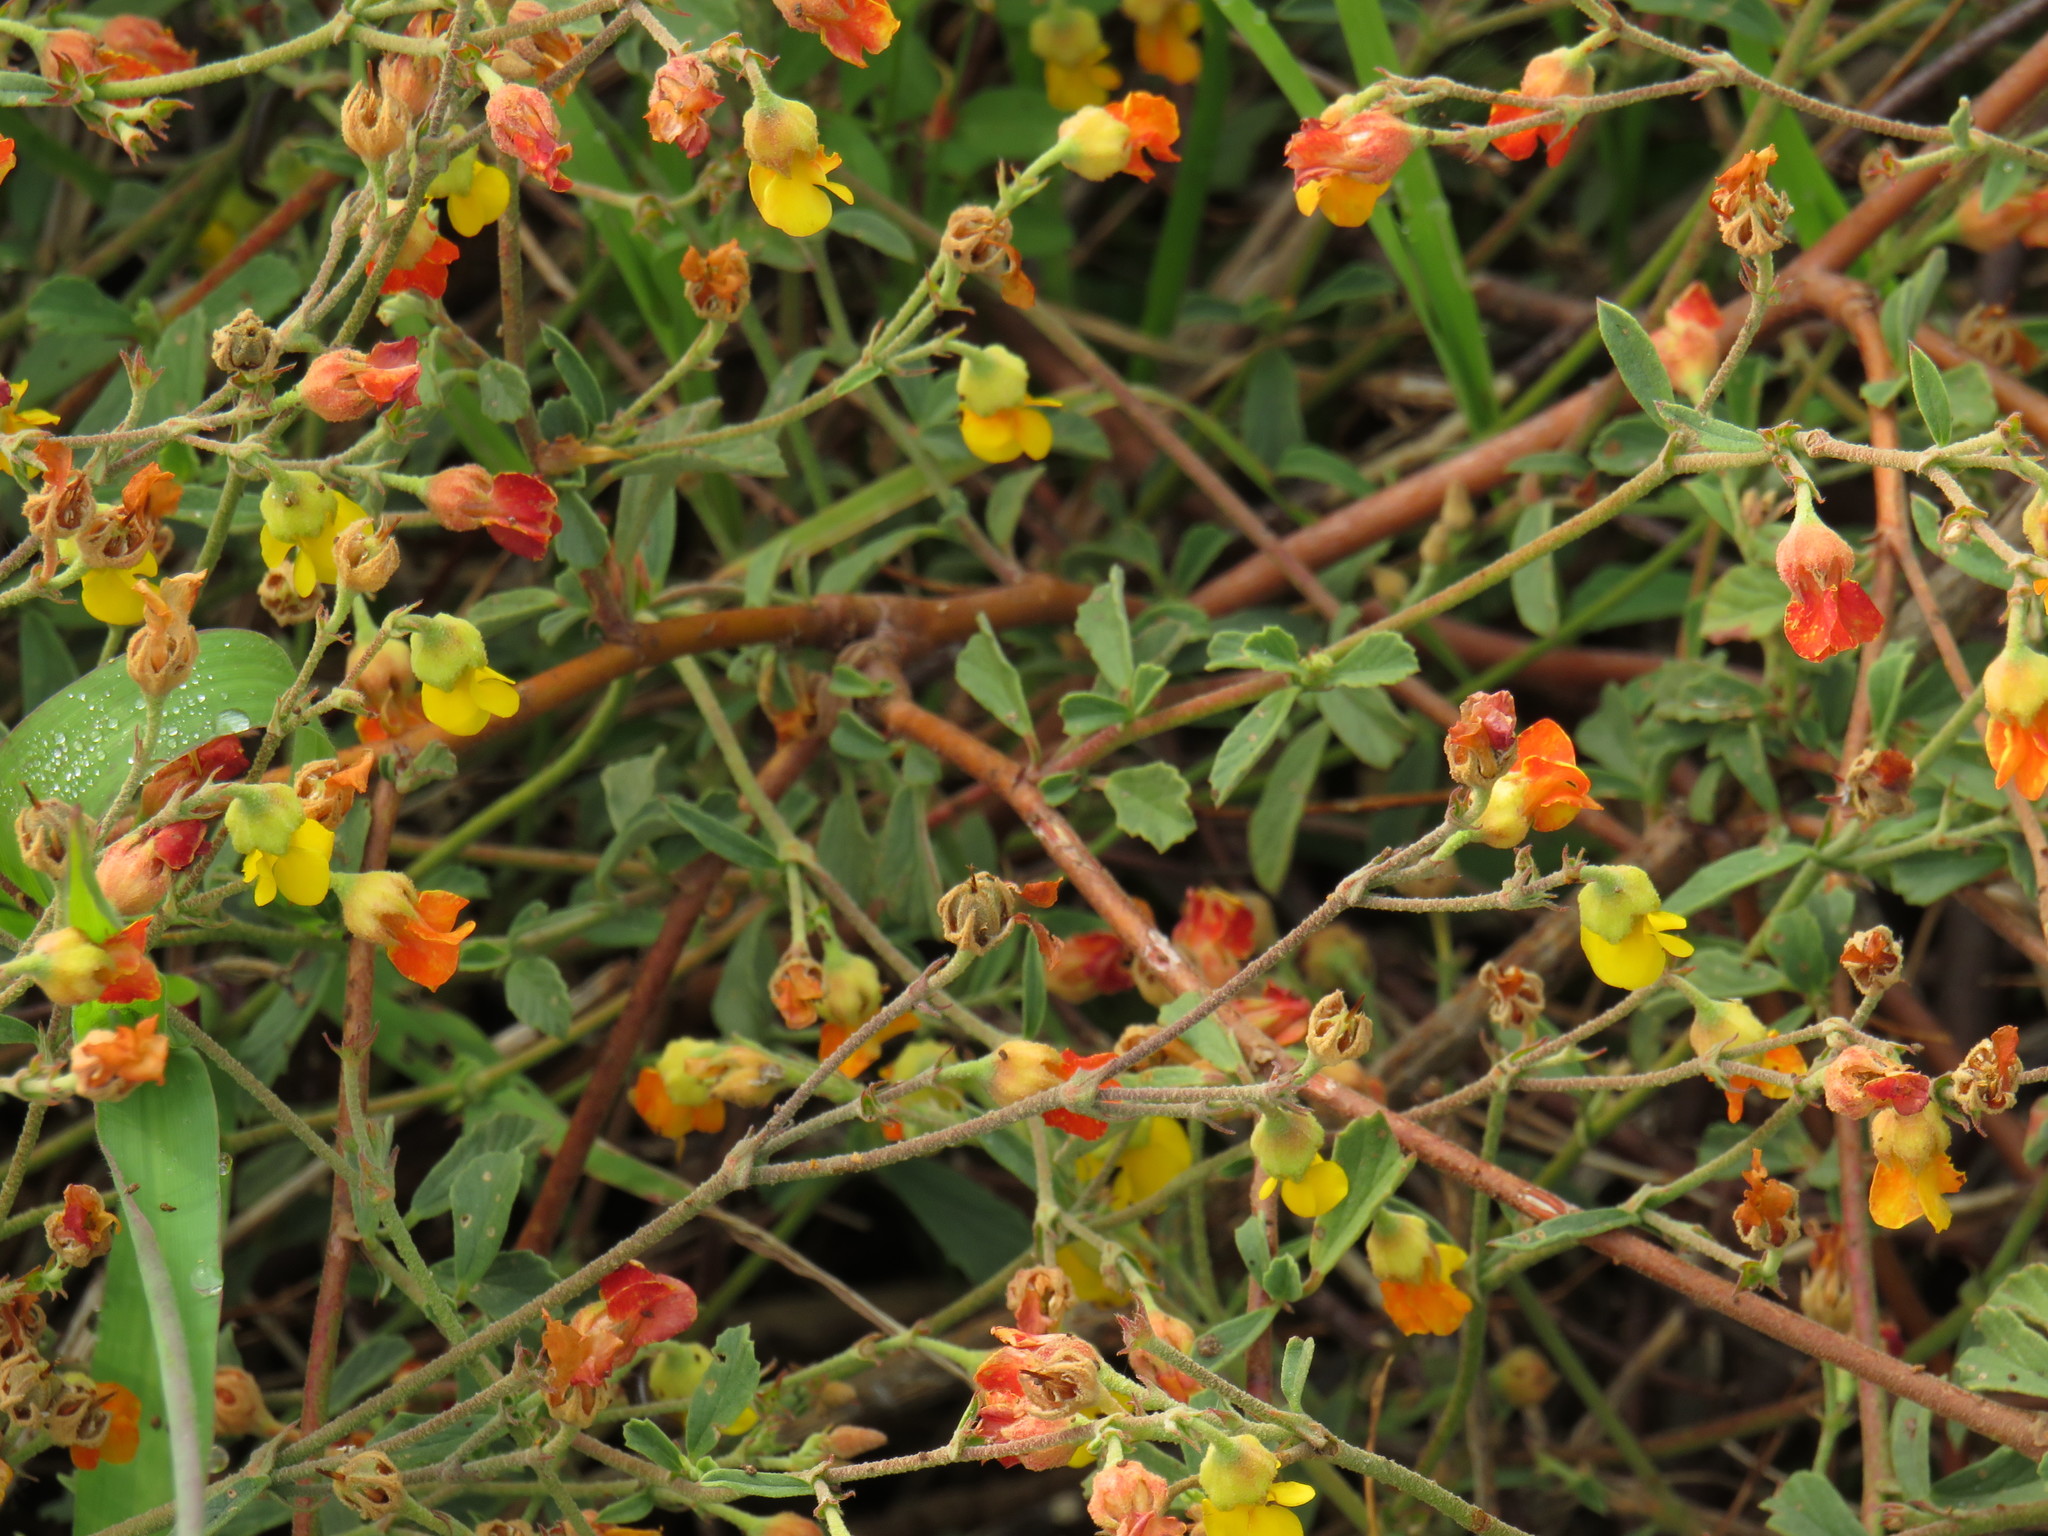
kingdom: Plantae
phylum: Tracheophyta
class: Magnoliopsida
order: Malvales
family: Malvaceae
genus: Hermannia
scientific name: Hermannia multiflora
